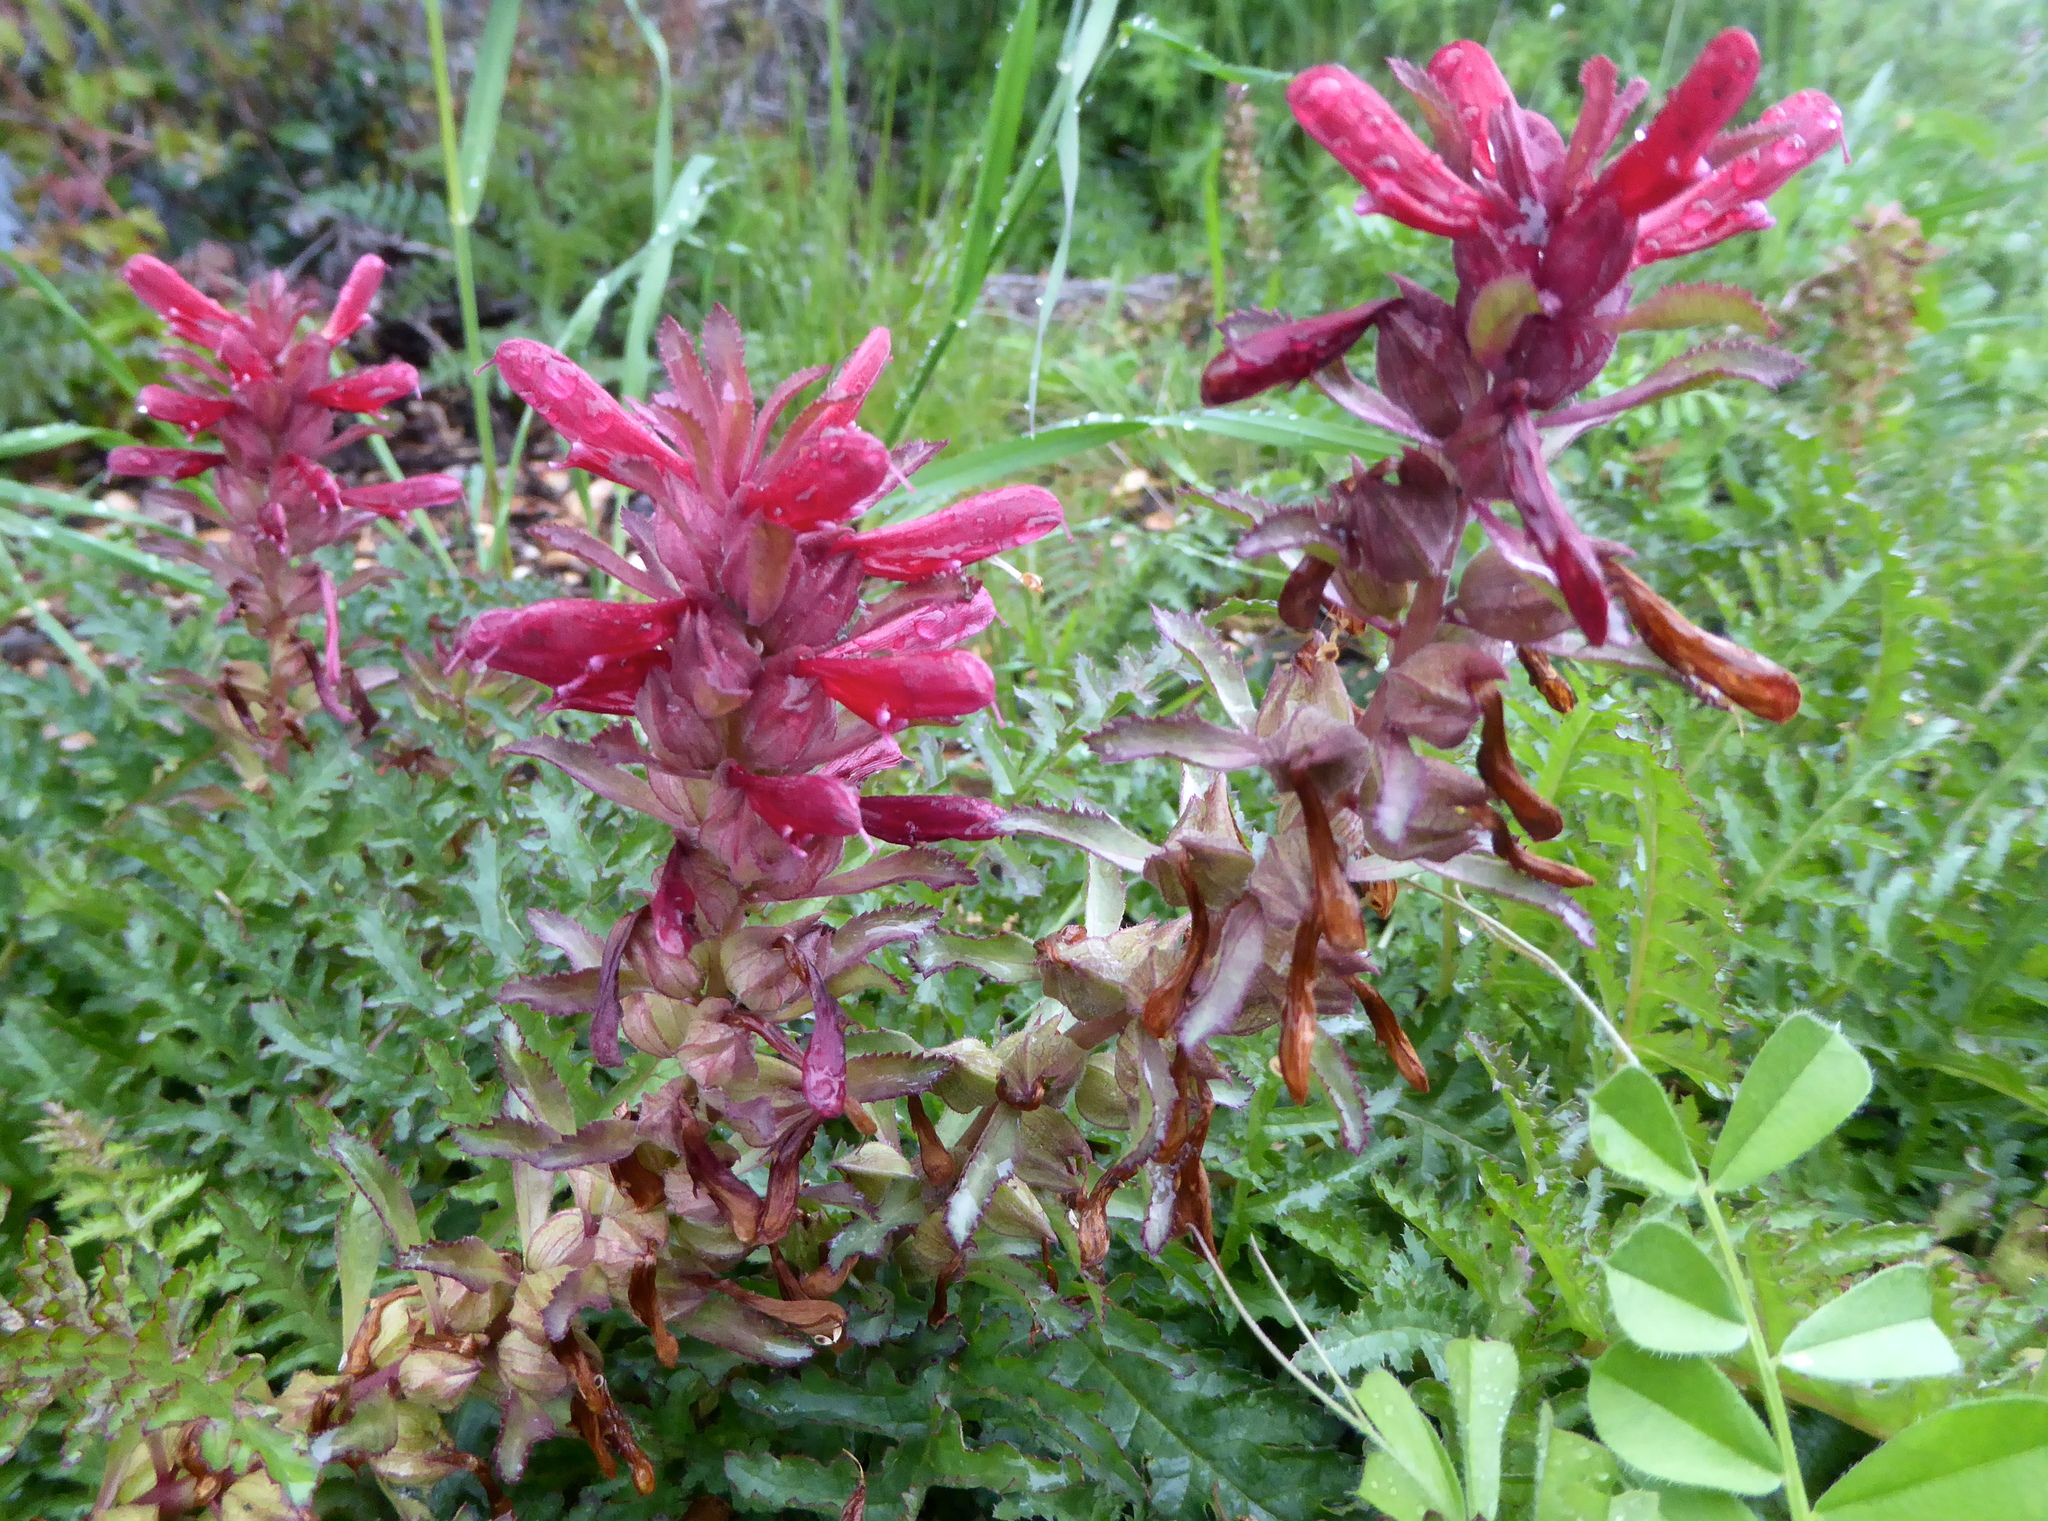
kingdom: Plantae
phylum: Tracheophyta
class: Magnoliopsida
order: Lamiales
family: Orobanchaceae
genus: Pedicularis
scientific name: Pedicularis densiflora
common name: Indian warrior
